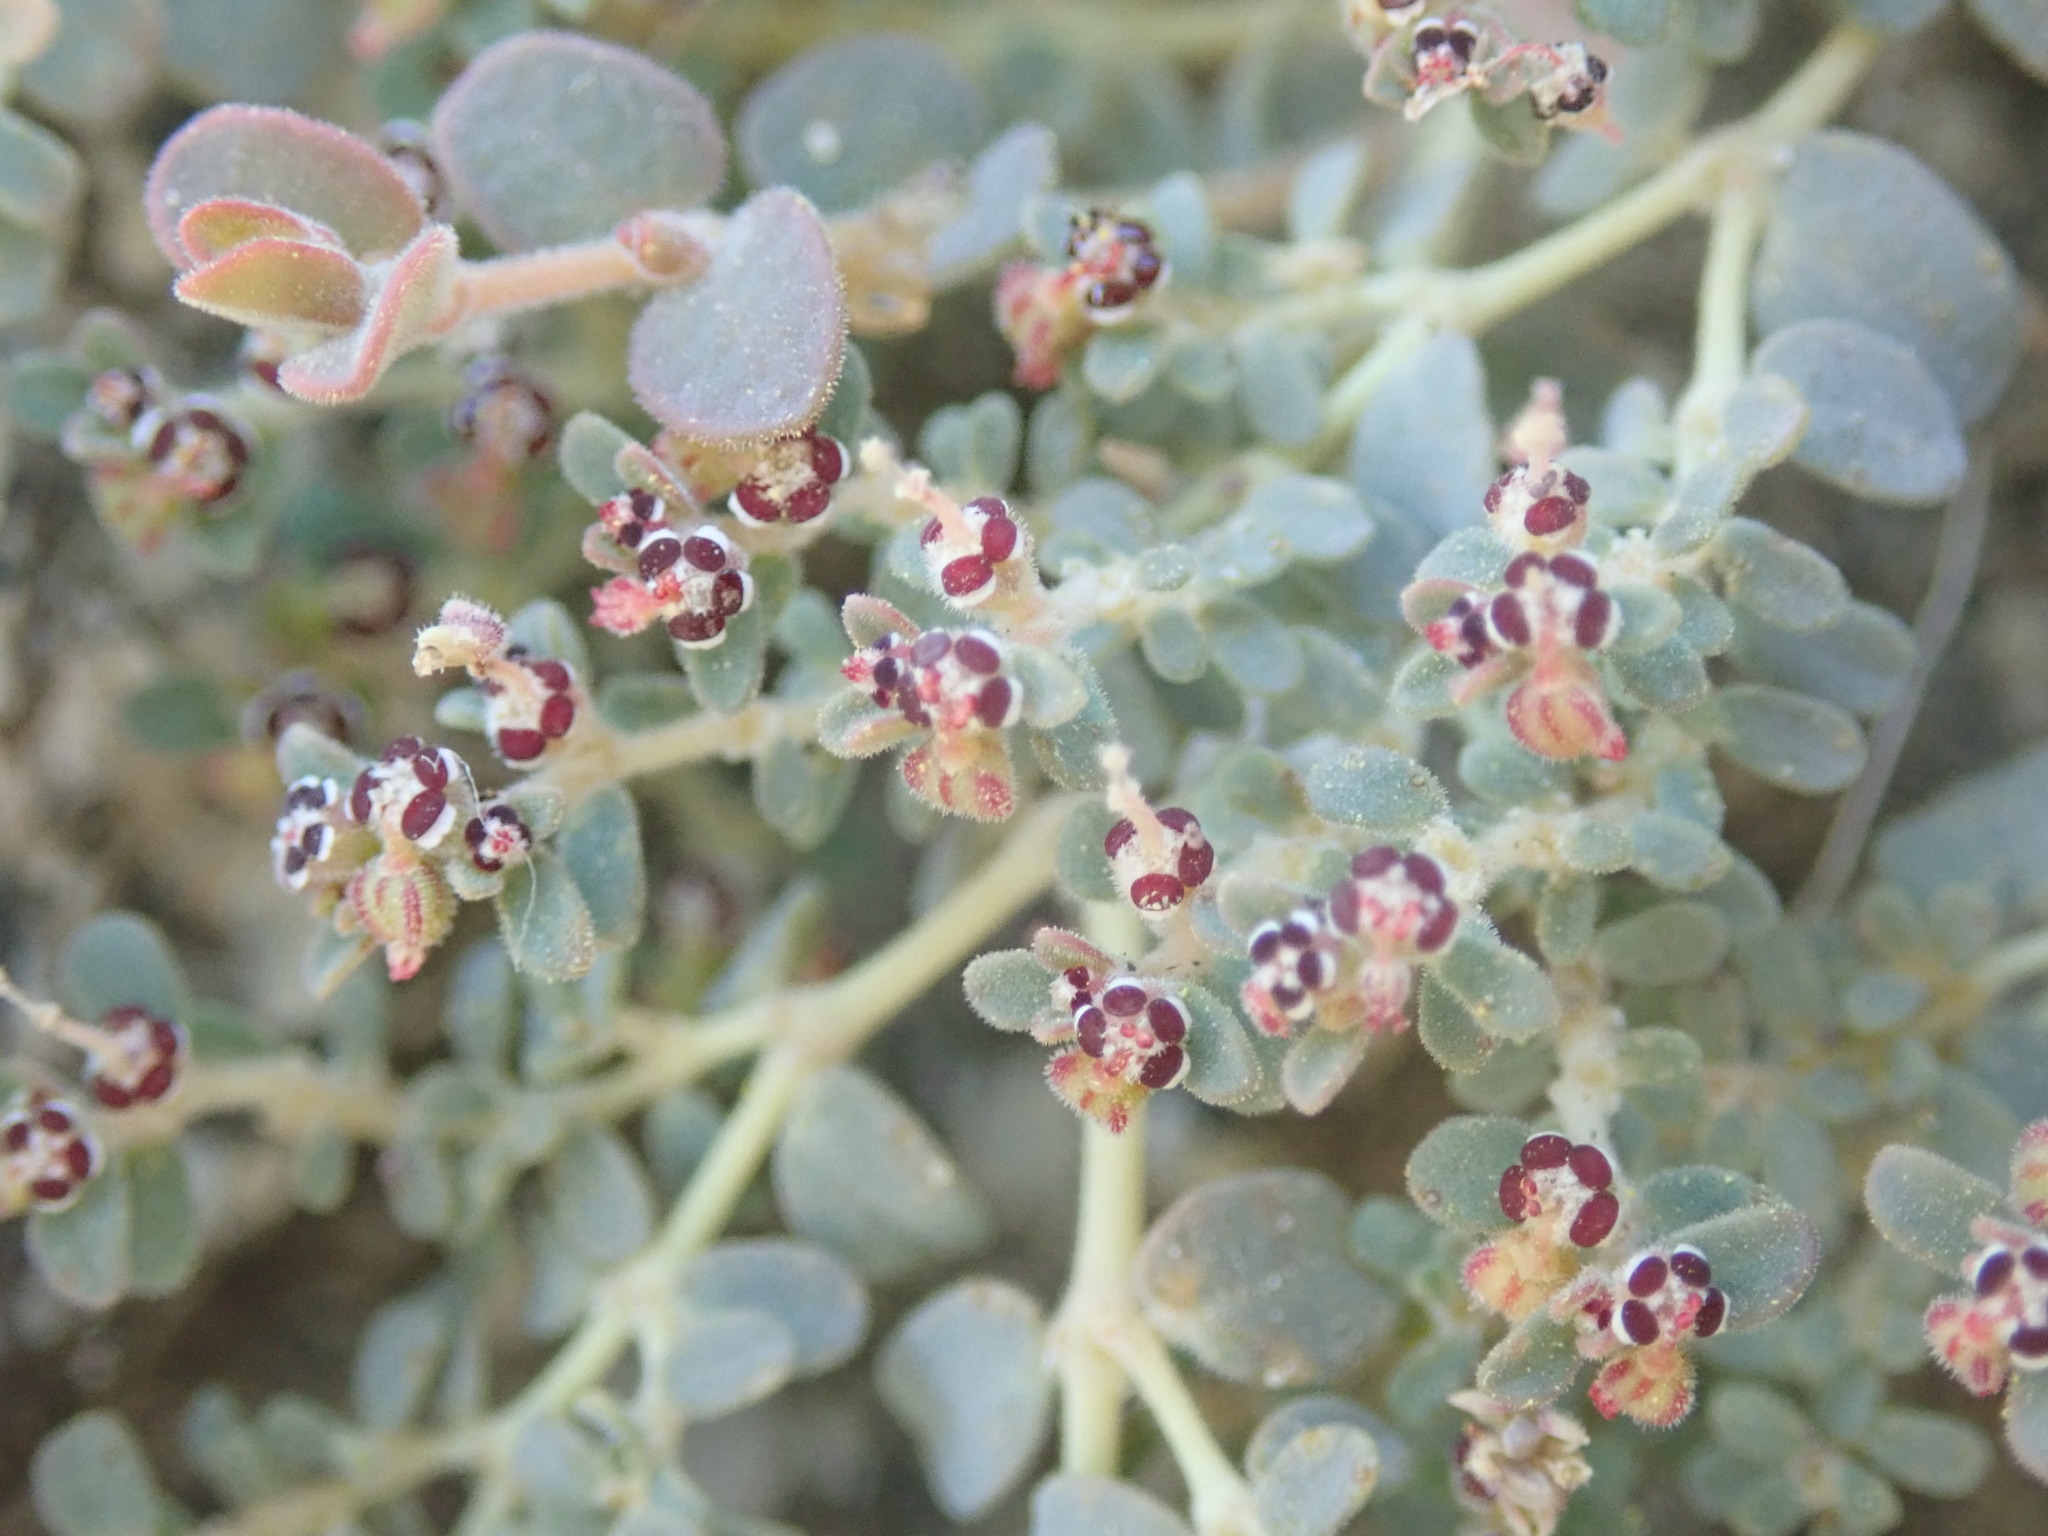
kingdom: Plantae
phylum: Tracheophyta
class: Magnoliopsida
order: Malpighiales
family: Euphorbiaceae
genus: Euphorbia
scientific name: Euphorbia polycarpa
